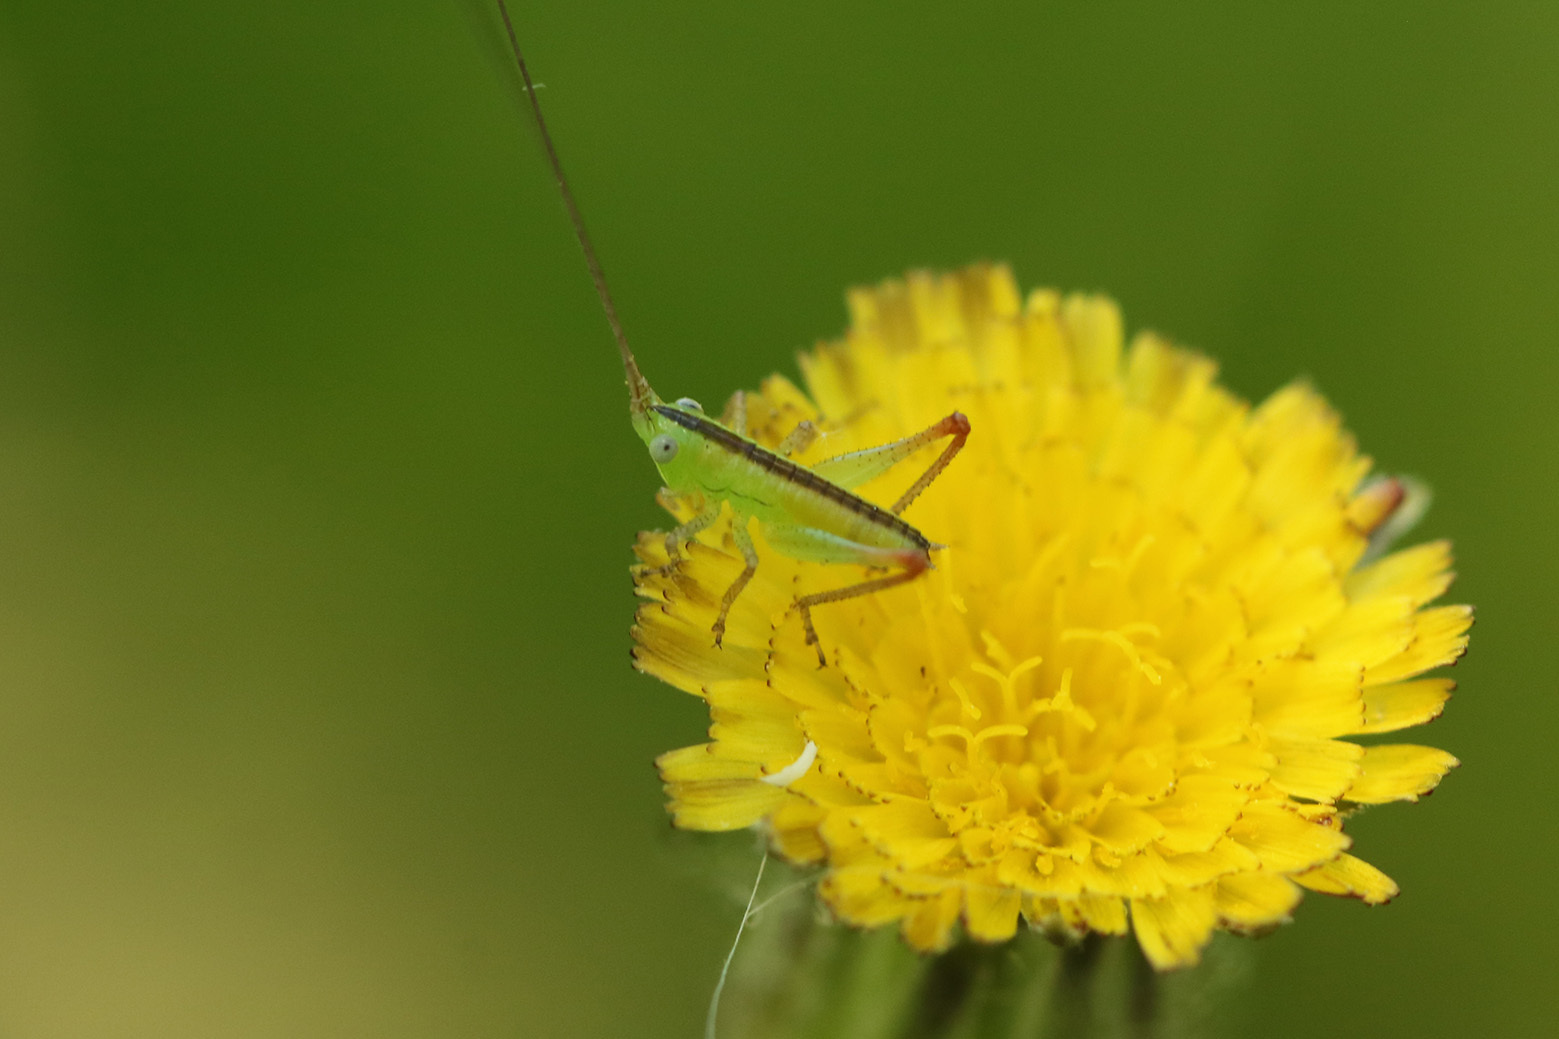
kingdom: Animalia
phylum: Arthropoda
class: Insecta
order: Orthoptera
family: Tettigoniidae
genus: Conocephalus
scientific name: Conocephalus longipes
